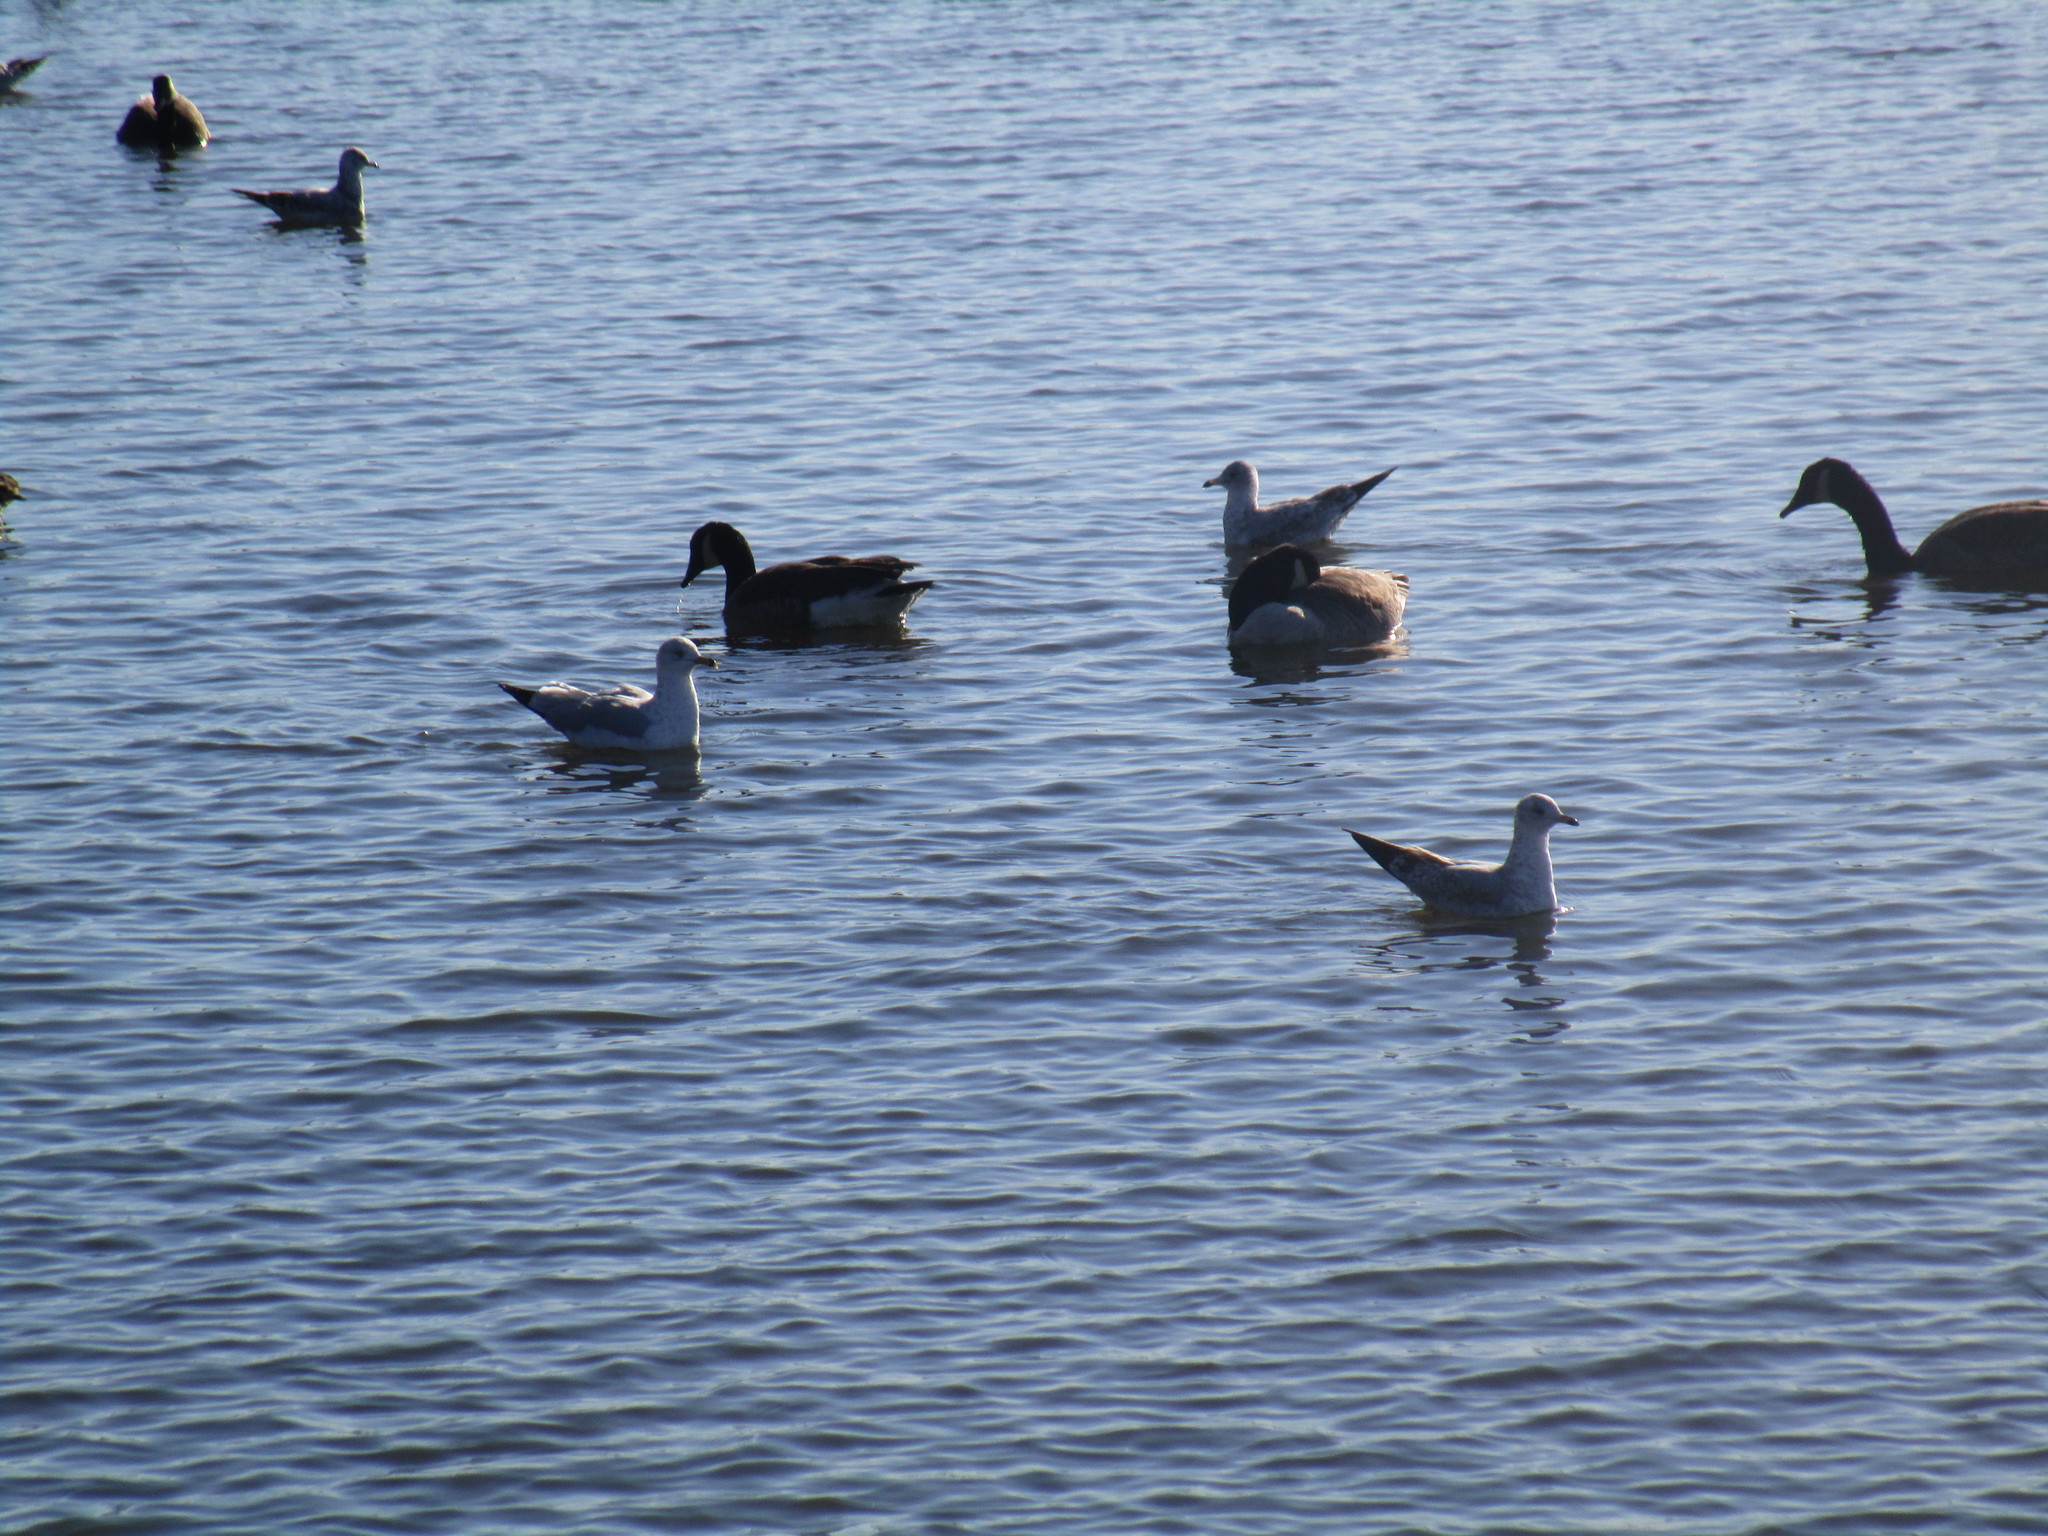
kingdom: Animalia
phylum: Chordata
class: Aves
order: Charadriiformes
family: Laridae
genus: Larus
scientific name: Larus delawarensis
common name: Ring-billed gull
